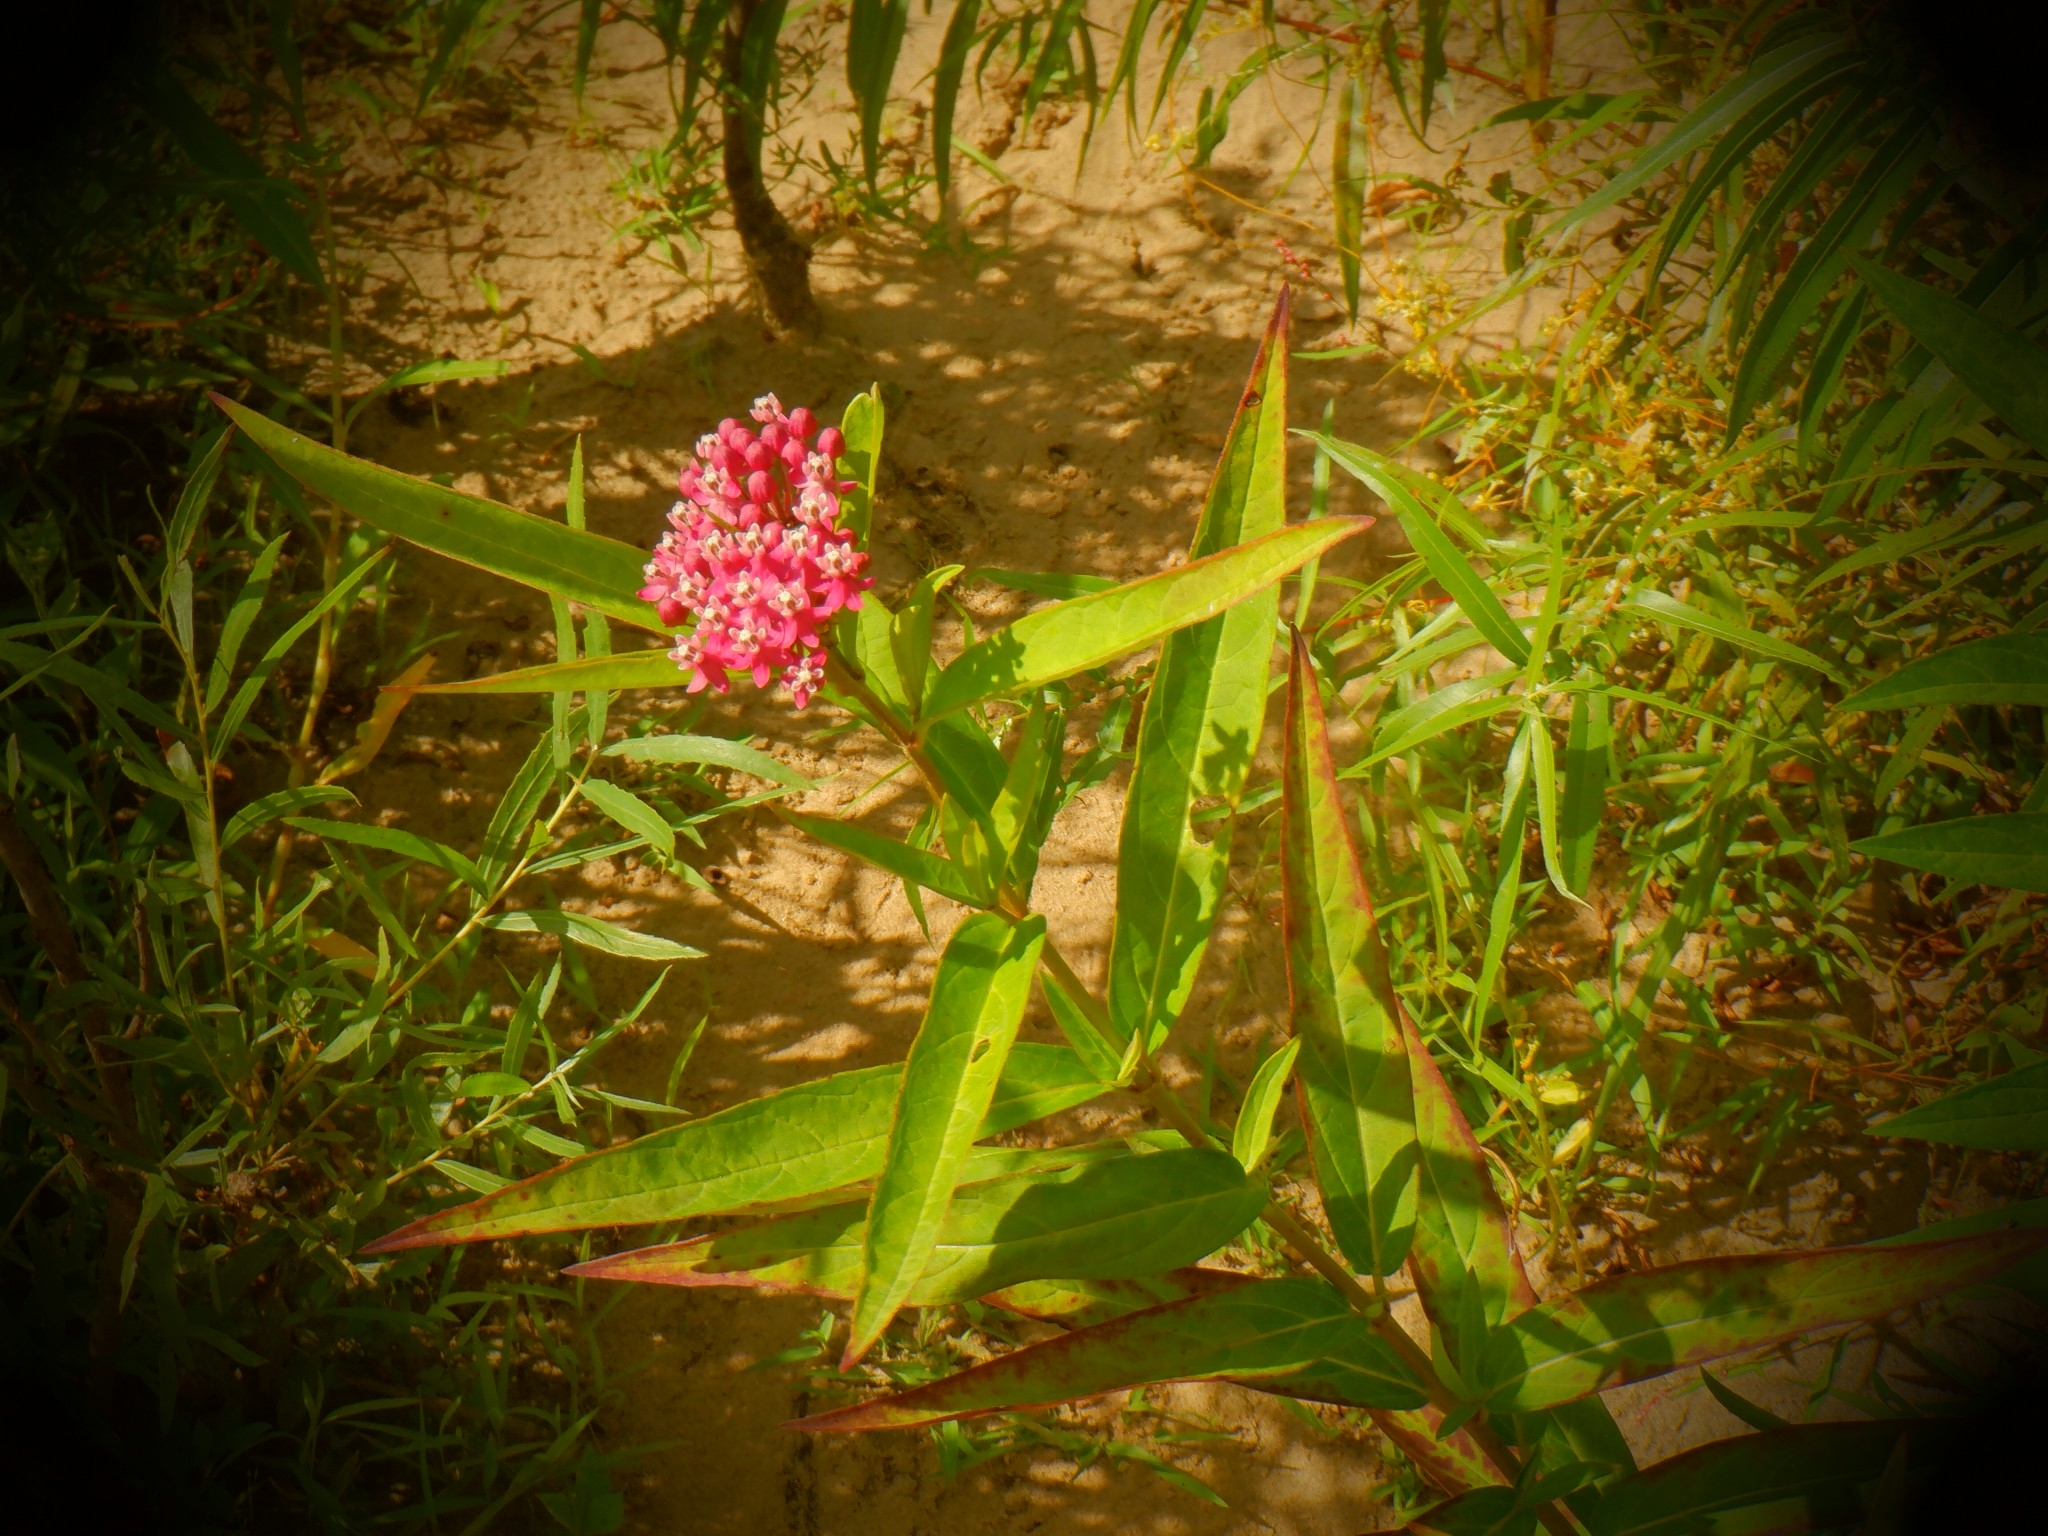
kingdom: Plantae
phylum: Tracheophyta
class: Magnoliopsida
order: Gentianales
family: Apocynaceae
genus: Asclepias
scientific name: Asclepias incarnata
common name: Swamp milkweed
